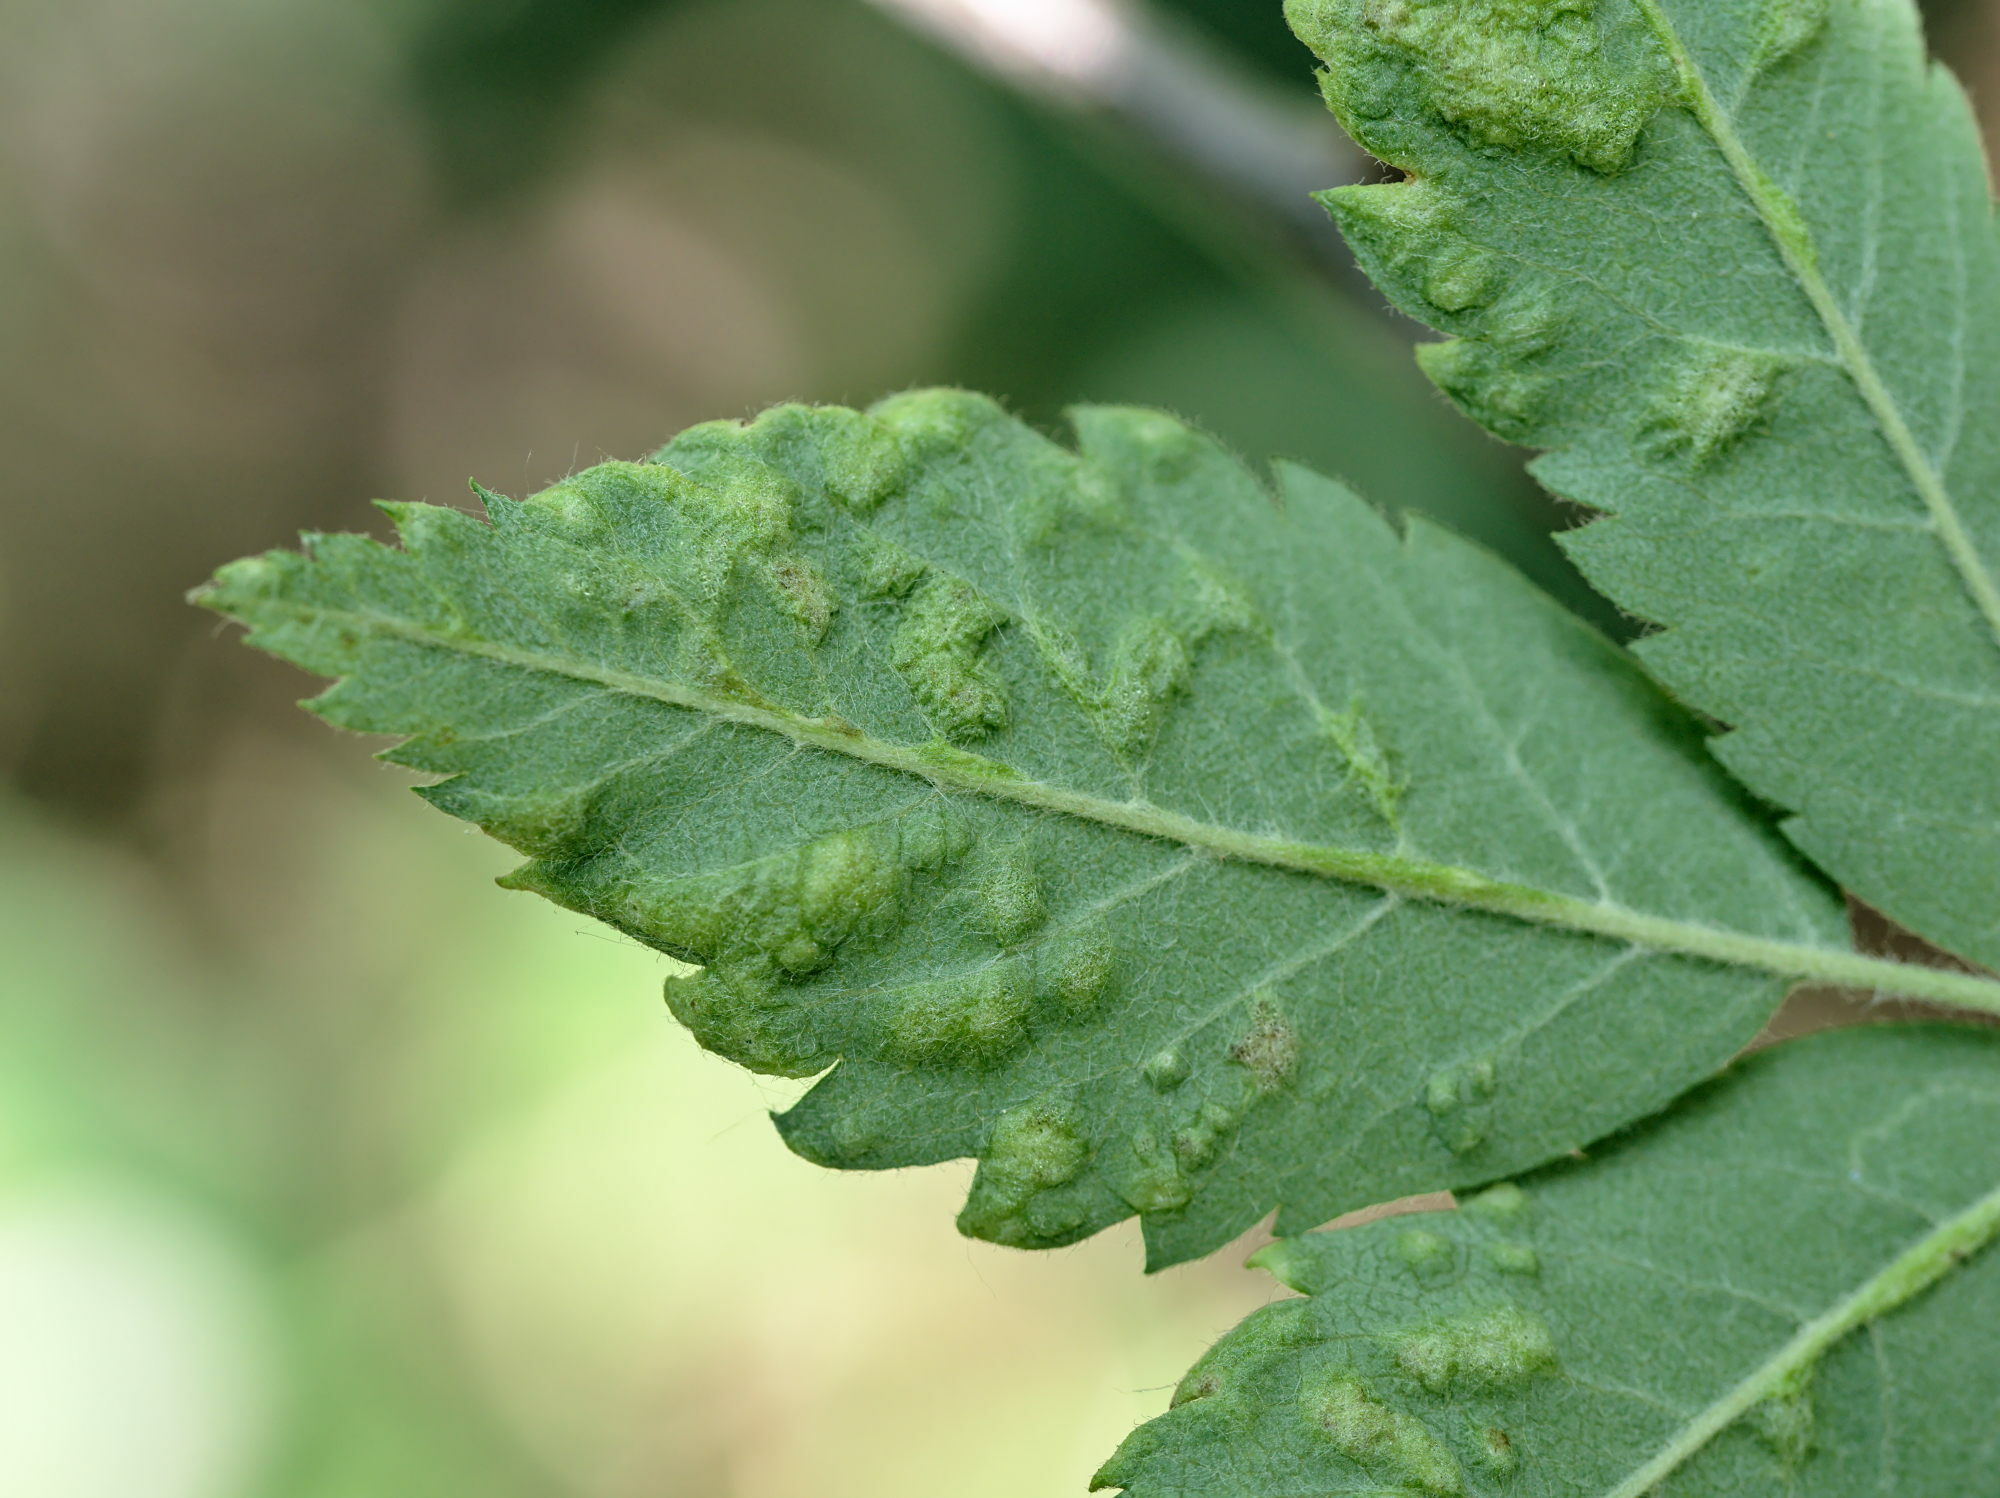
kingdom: Animalia
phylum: Arthropoda
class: Arachnida
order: Trombidiformes
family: Eriophyidae
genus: Eriophyes
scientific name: Eriophyes sorbi
